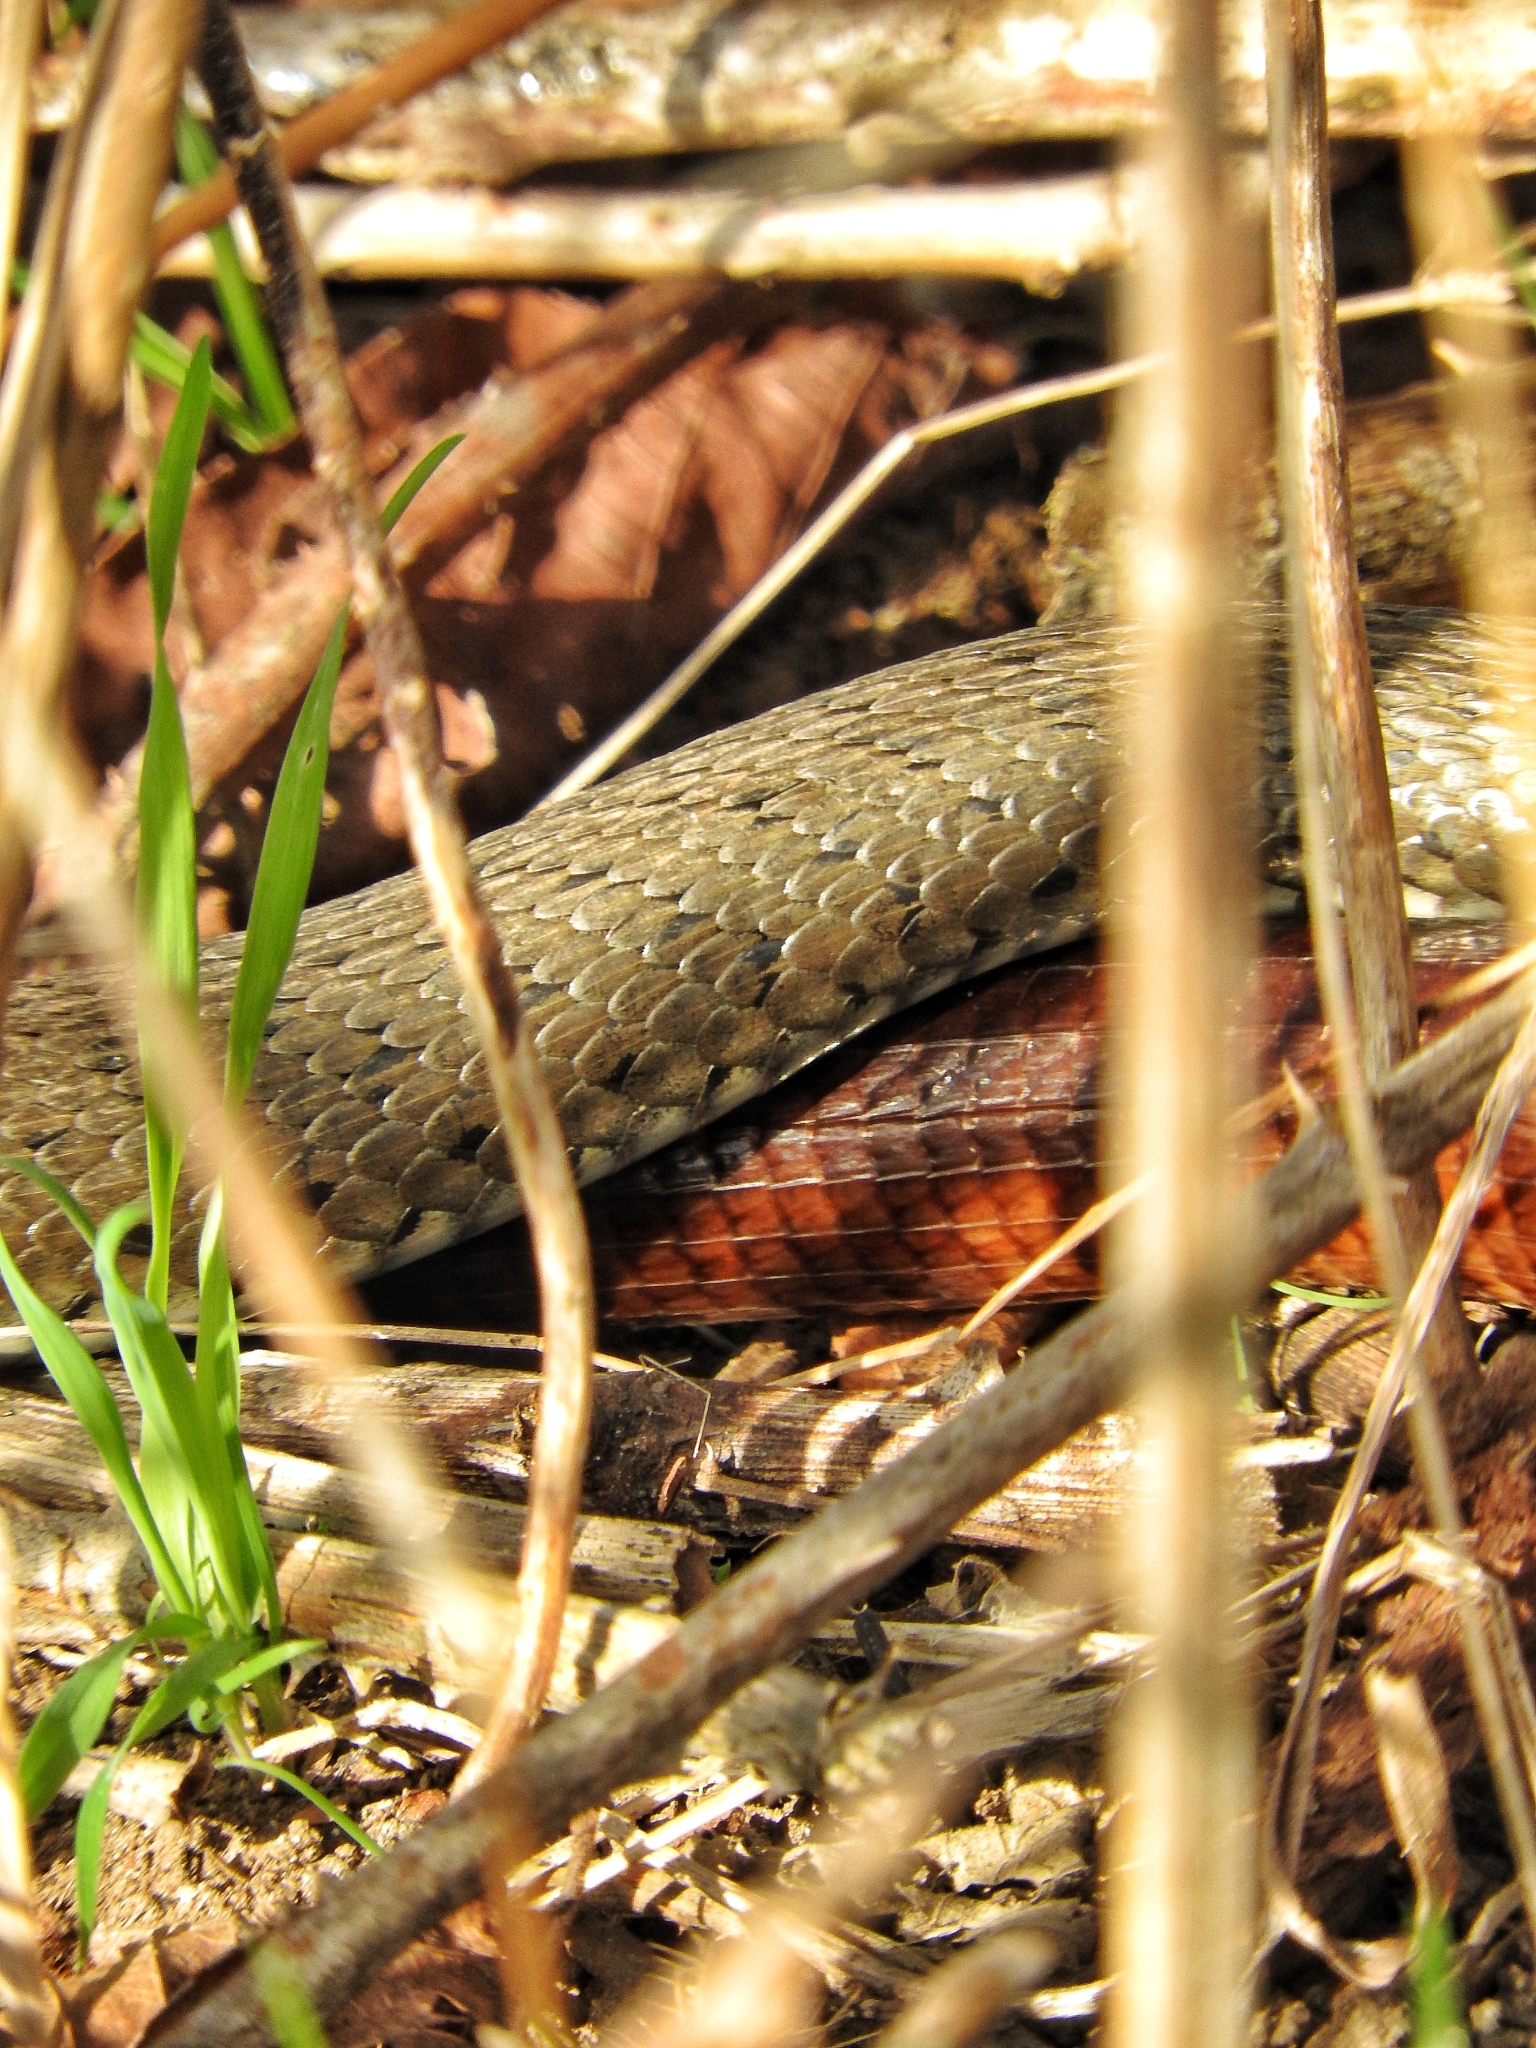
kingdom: Animalia
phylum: Chordata
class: Squamata
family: Colubridae
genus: Natrix
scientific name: Natrix natrix
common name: Grass snake
